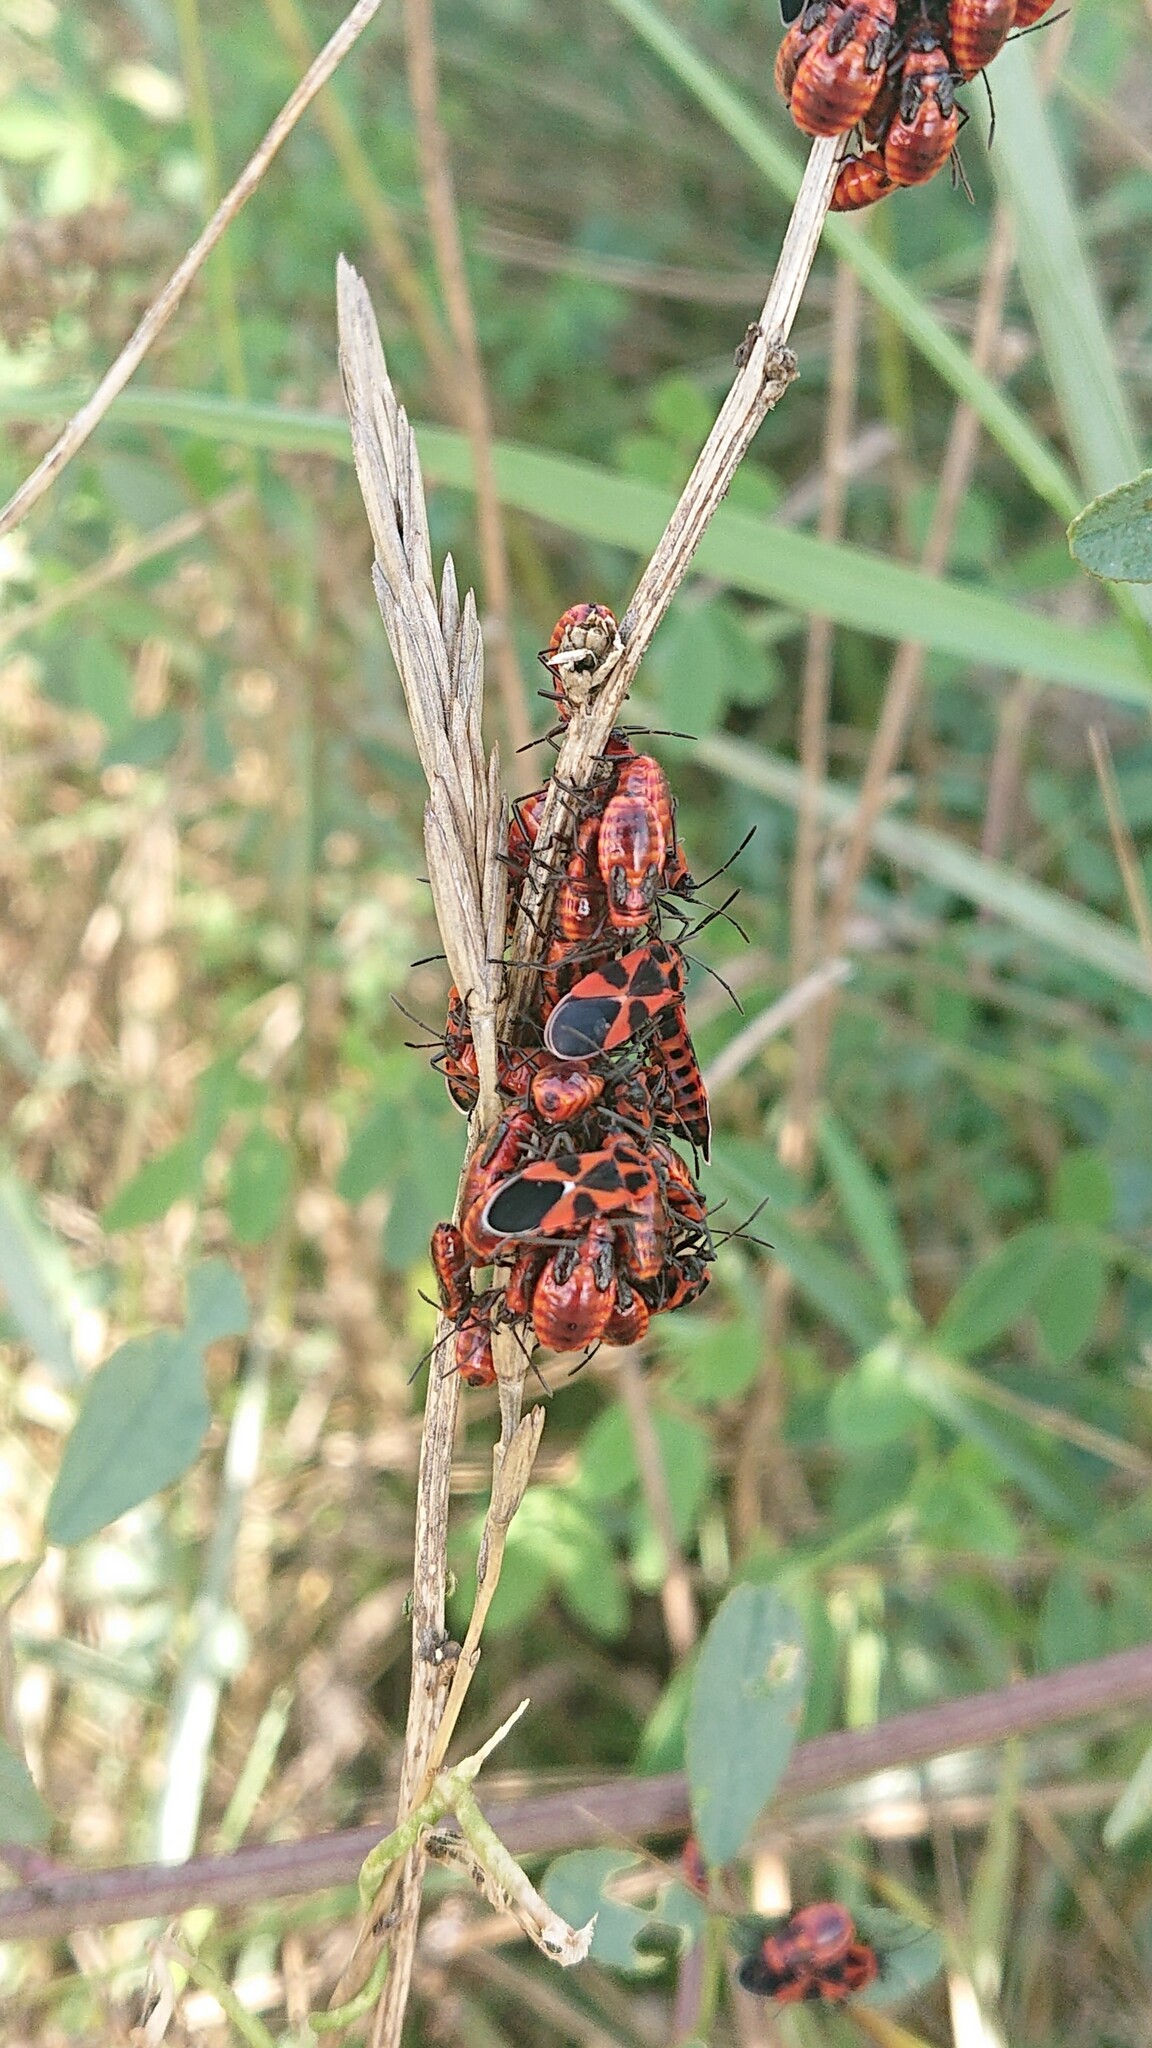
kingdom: Animalia
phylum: Arthropoda
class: Insecta
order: Hemiptera
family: Lygaeidae
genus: Tropidothorax
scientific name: Tropidothorax leucopterus
